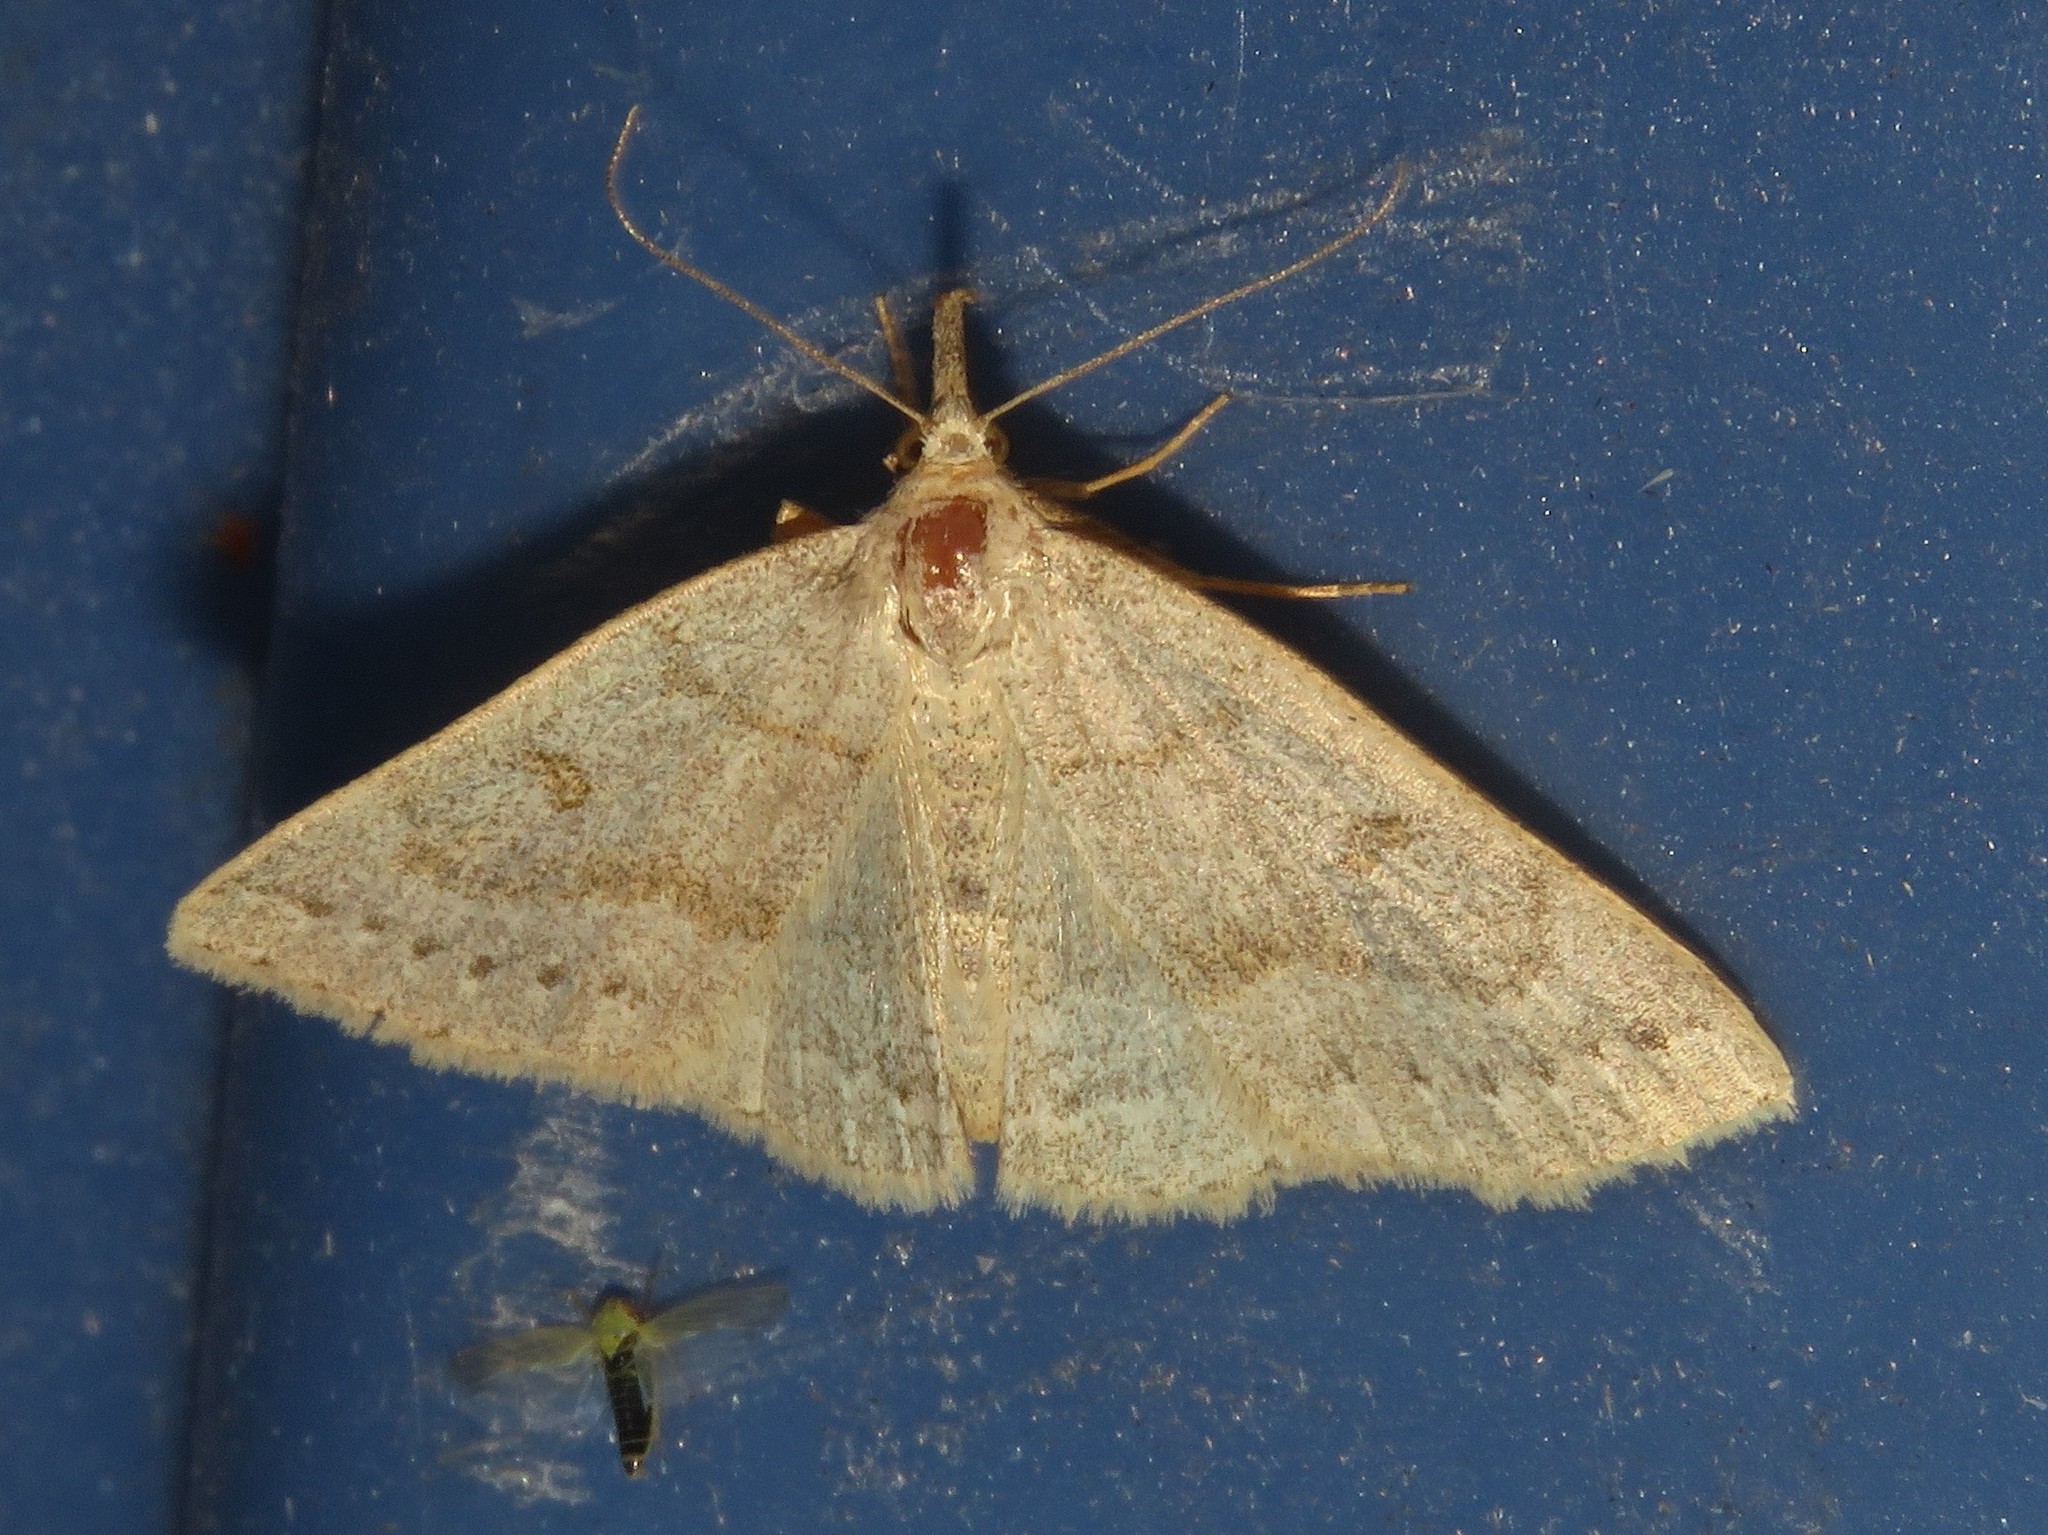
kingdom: Animalia
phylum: Arthropoda
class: Insecta
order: Lepidoptera
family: Erebidae
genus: Macrochilo
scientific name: Macrochilo morbidalis
